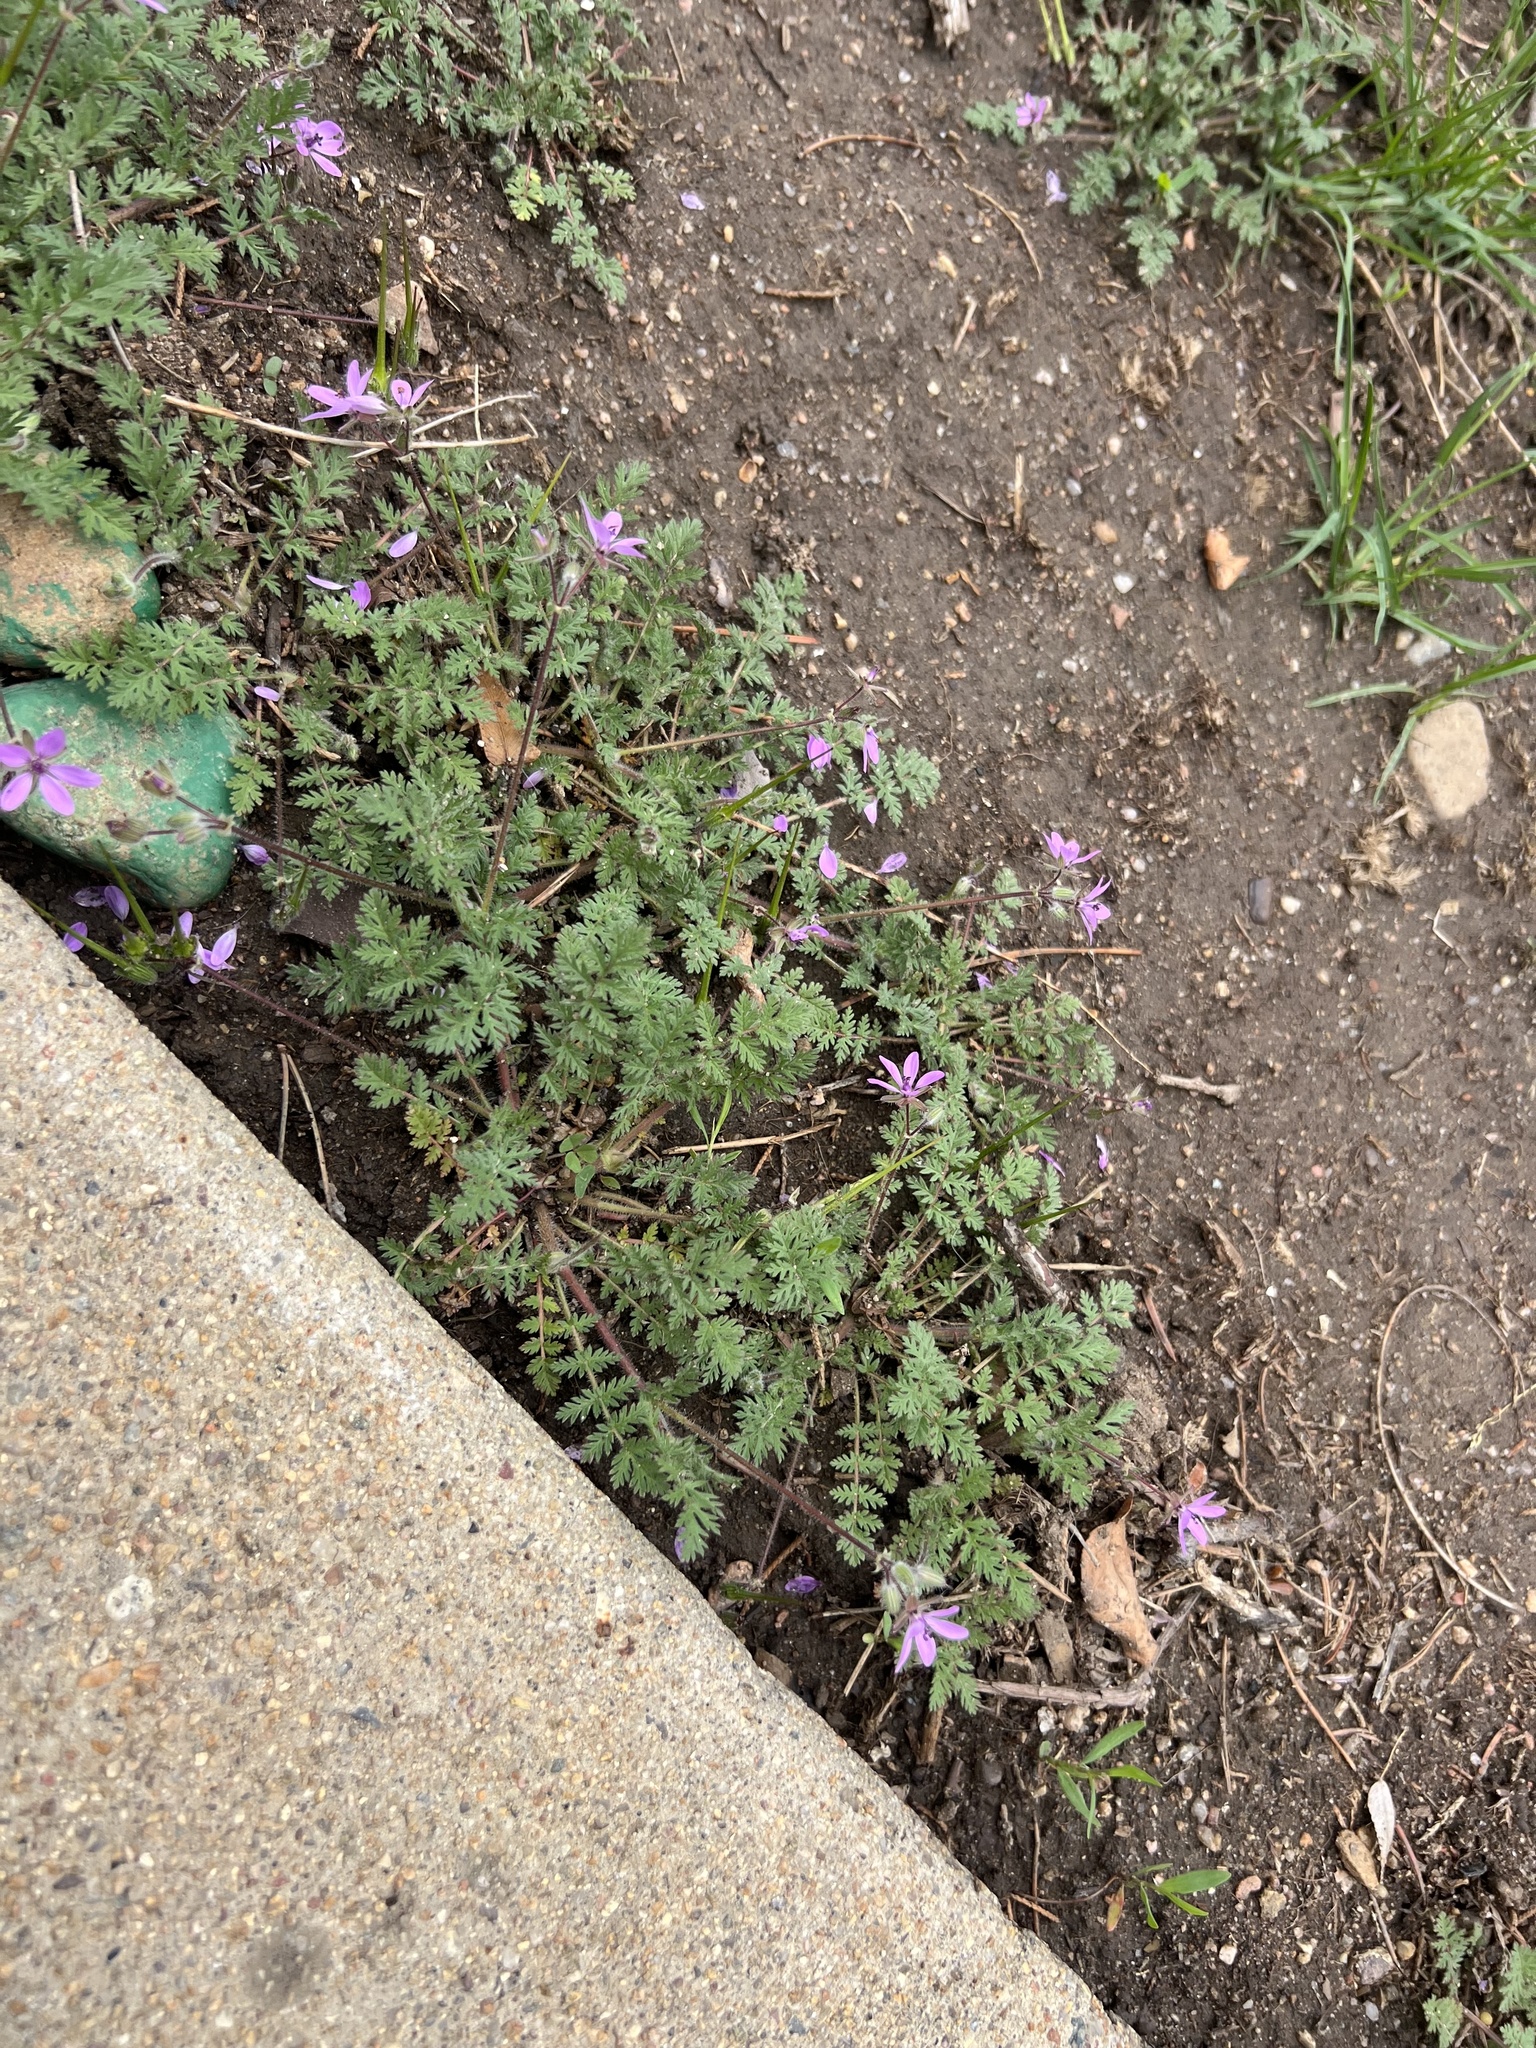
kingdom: Plantae
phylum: Tracheophyta
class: Magnoliopsida
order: Geraniales
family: Geraniaceae
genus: Erodium
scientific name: Erodium cicutarium
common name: Common stork's-bill
